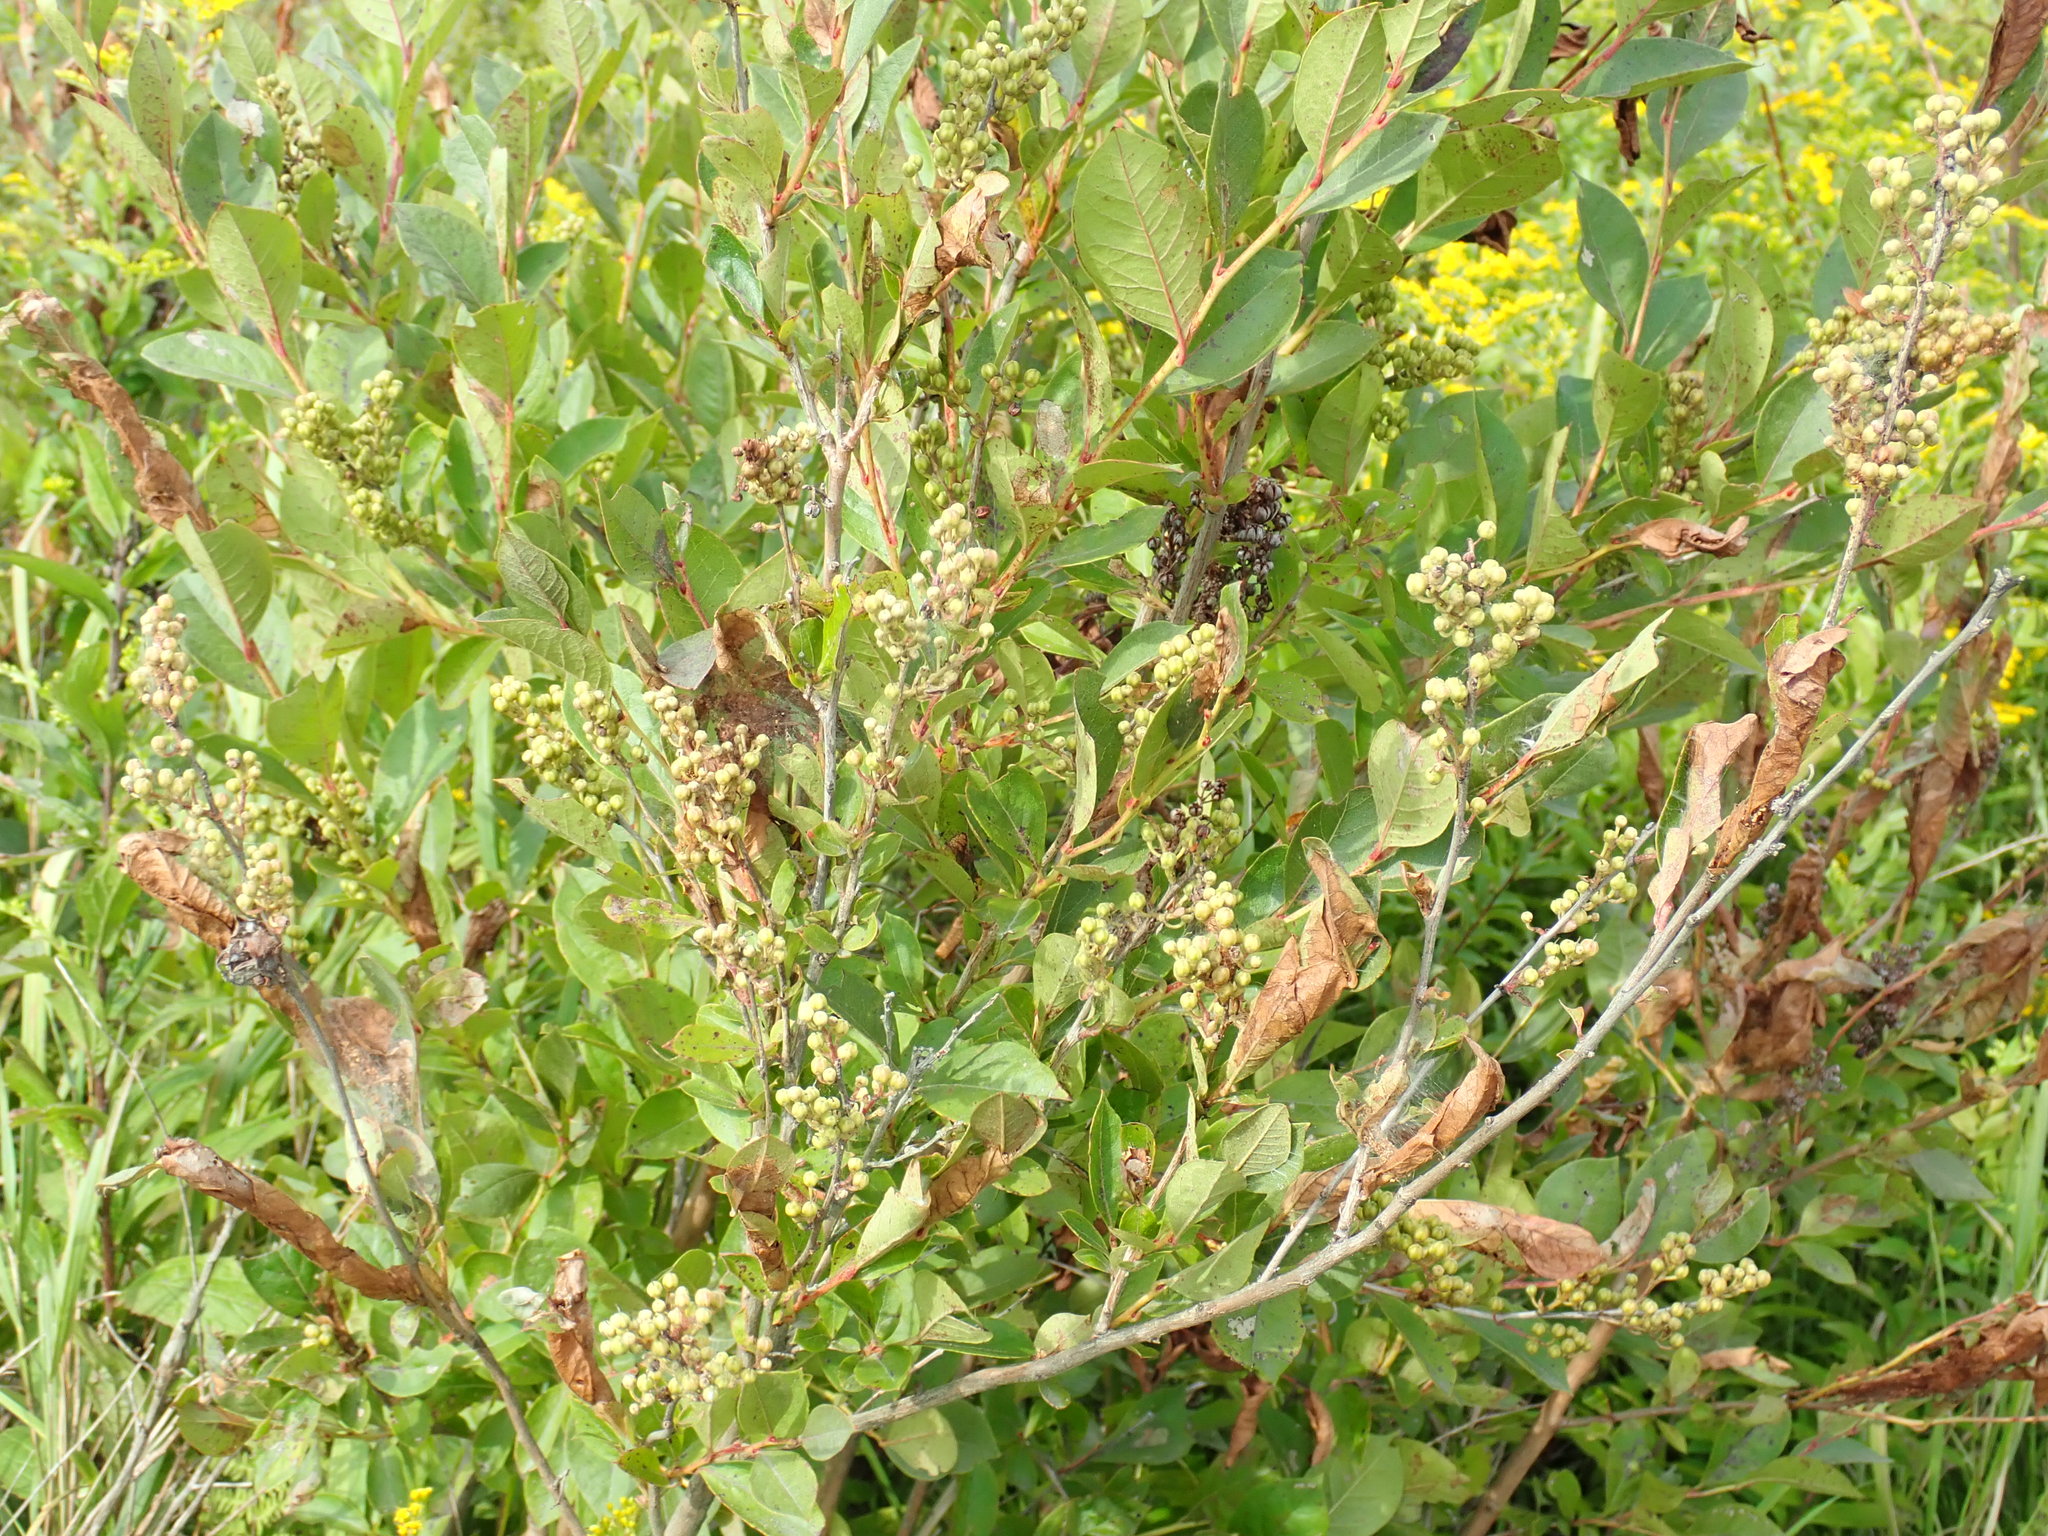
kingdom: Plantae
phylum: Tracheophyta
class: Magnoliopsida
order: Ericales
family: Ericaceae
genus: Lyonia
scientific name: Lyonia ligustrina
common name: Maleberry
